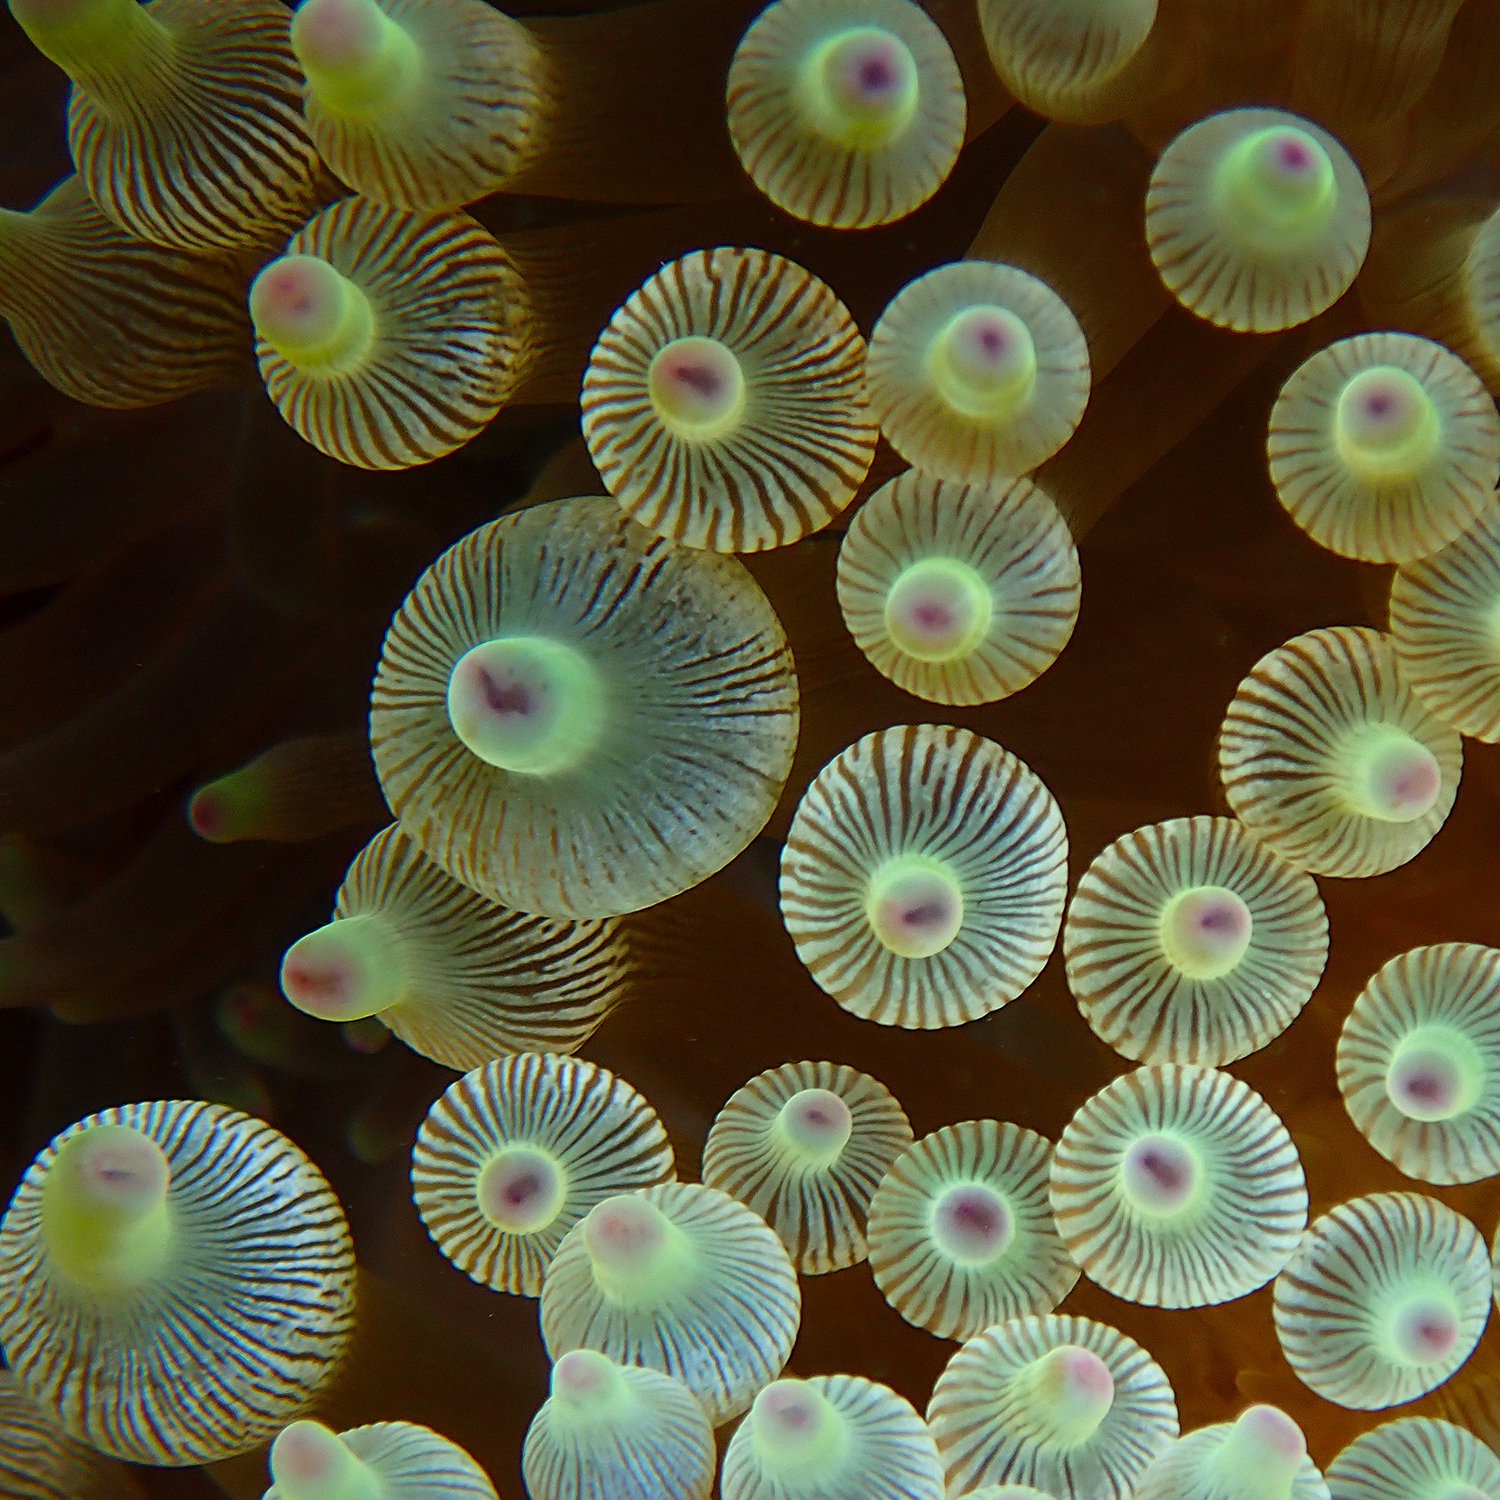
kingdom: Animalia
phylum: Cnidaria
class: Anthozoa
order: Actiniaria
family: Actiniidae
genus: Entacmaea
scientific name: Entacmaea quadricolor
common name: Bulb tentacle sea anemone
